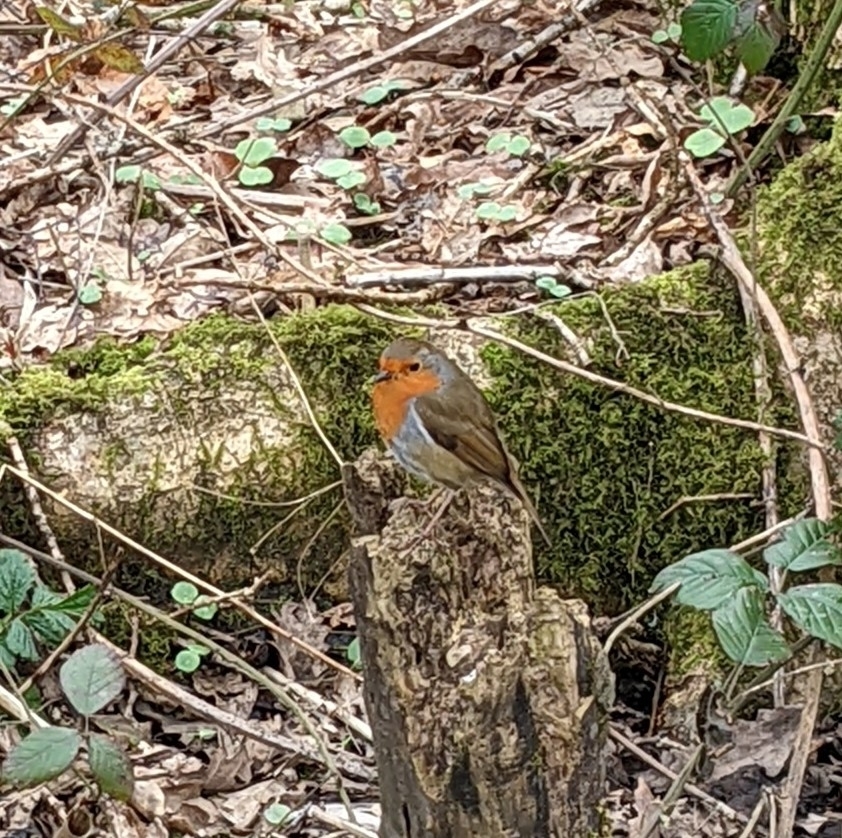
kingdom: Animalia
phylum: Chordata
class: Aves
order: Passeriformes
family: Muscicapidae
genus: Erithacus
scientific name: Erithacus rubecula
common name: European robin
